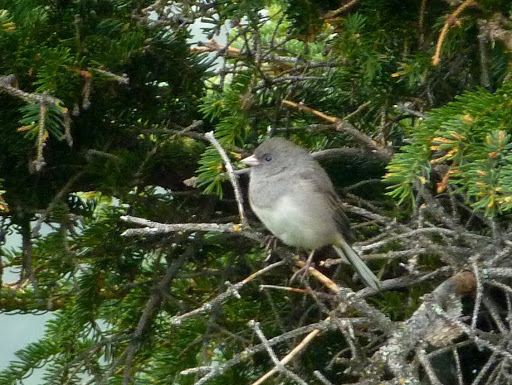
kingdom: Animalia
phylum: Chordata
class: Aves
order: Passeriformes
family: Passerellidae
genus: Junco
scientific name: Junco hyemalis
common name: Dark-eyed junco
